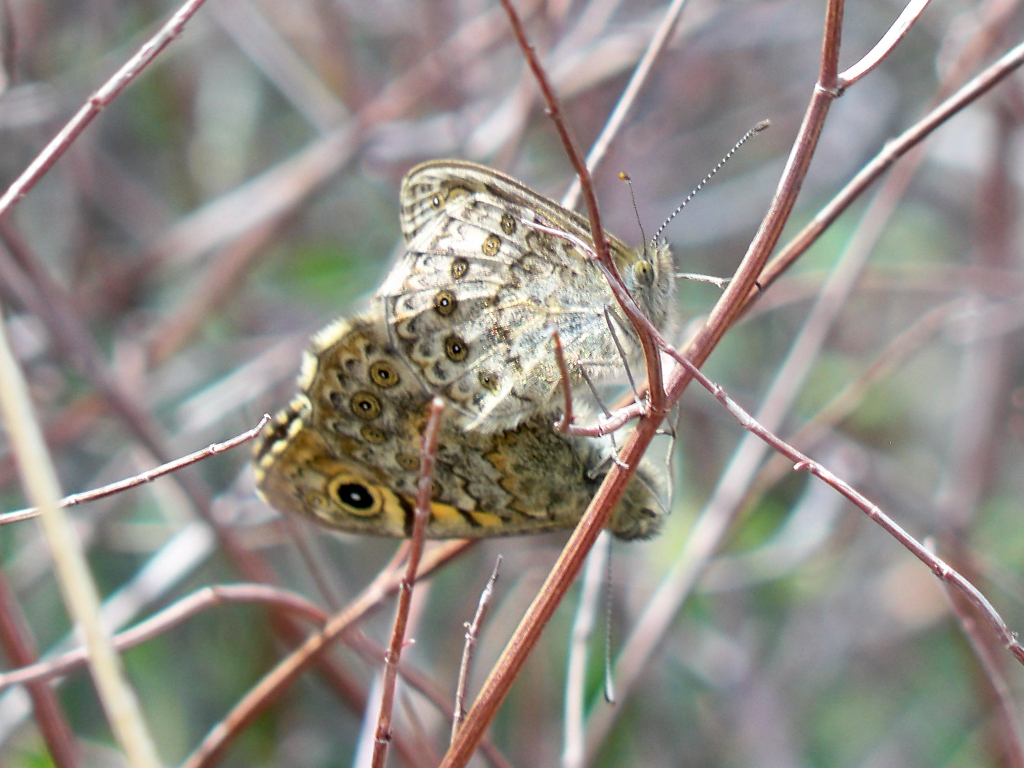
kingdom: Animalia
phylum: Arthropoda
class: Insecta
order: Lepidoptera
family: Nymphalidae
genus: Pararge
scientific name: Pararge Lasiommata megera
